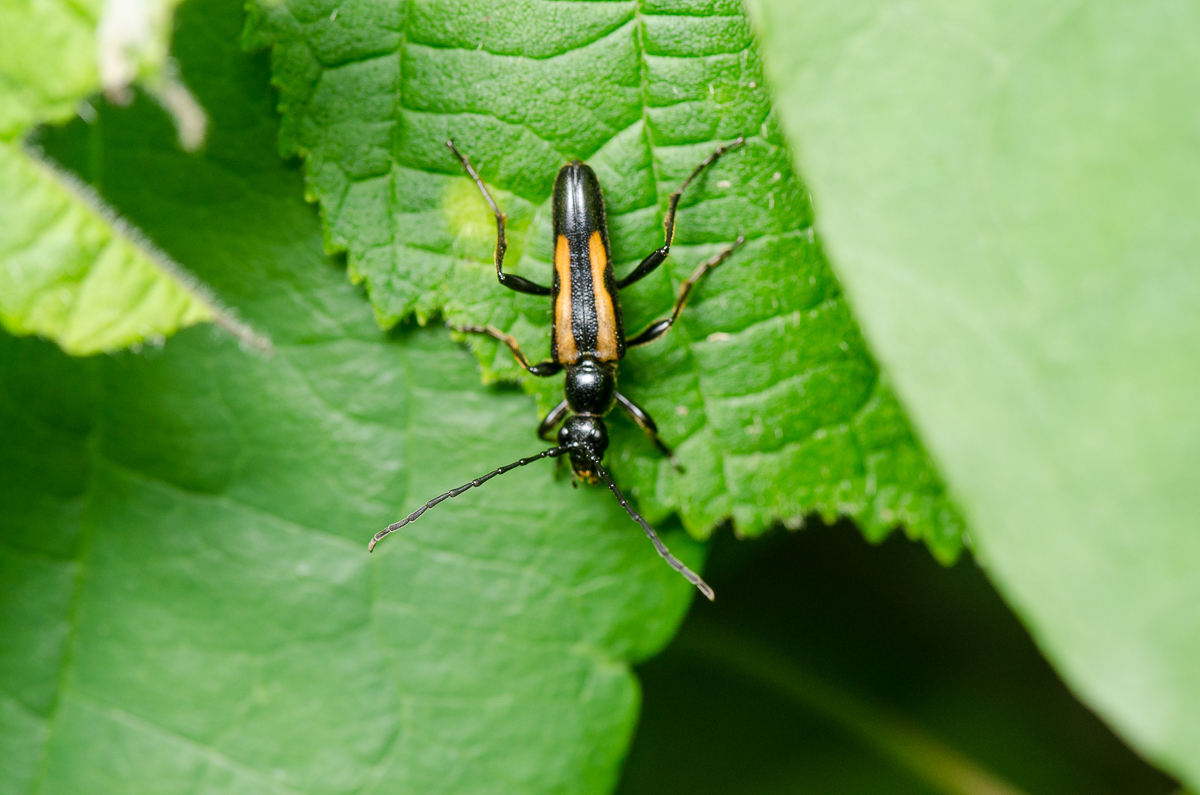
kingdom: Animalia
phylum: Arthropoda
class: Insecta
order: Coleoptera
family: Cerambycidae
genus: Strangalepta
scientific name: Strangalepta abbreviata
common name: Strangalepta flower longhorn beetle
